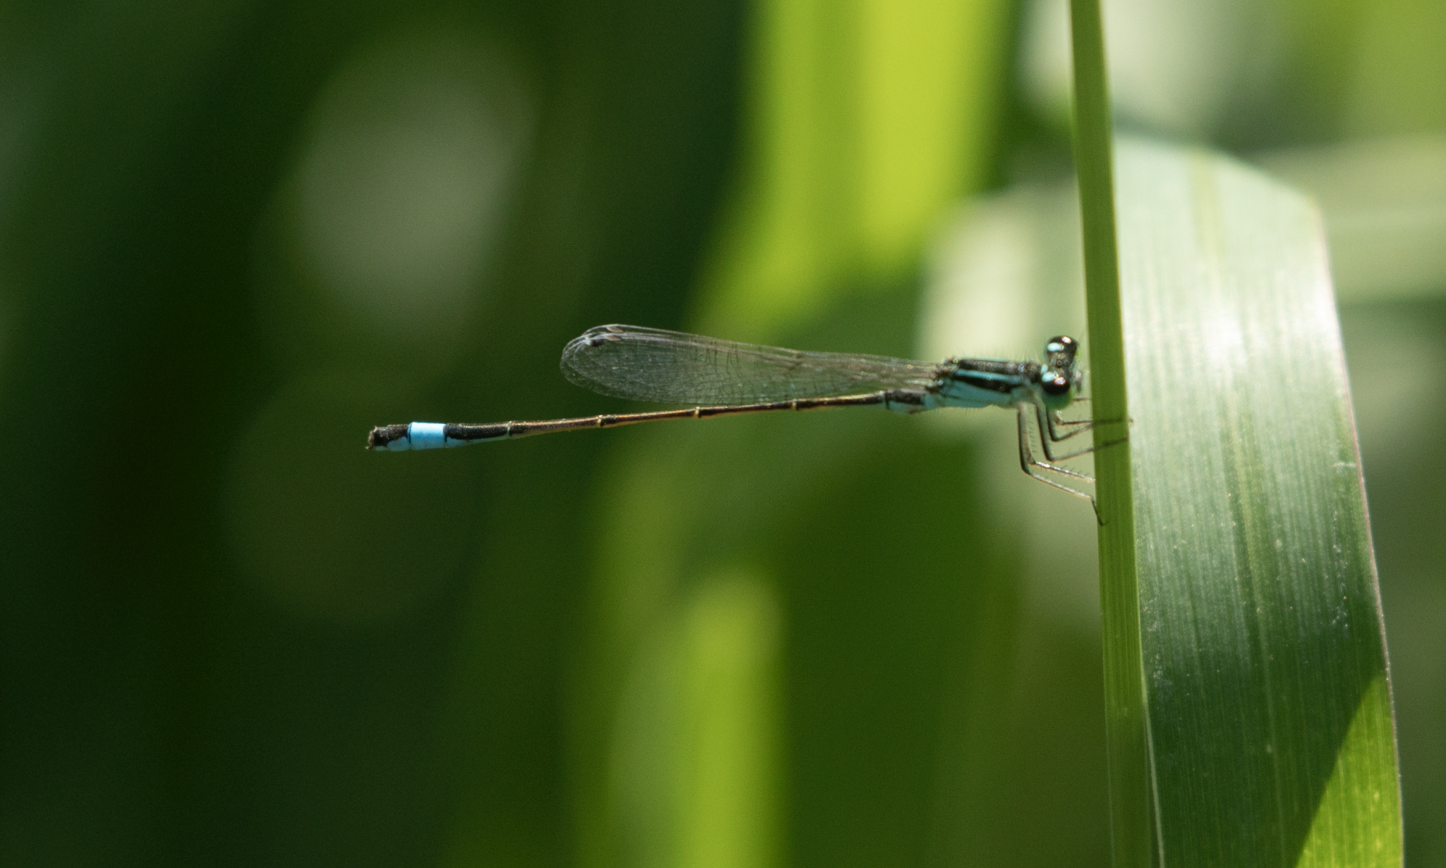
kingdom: Animalia
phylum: Arthropoda
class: Insecta
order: Odonata
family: Coenagrionidae
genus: Ischnura
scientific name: Ischnura elegans
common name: Blue-tailed damselfly
